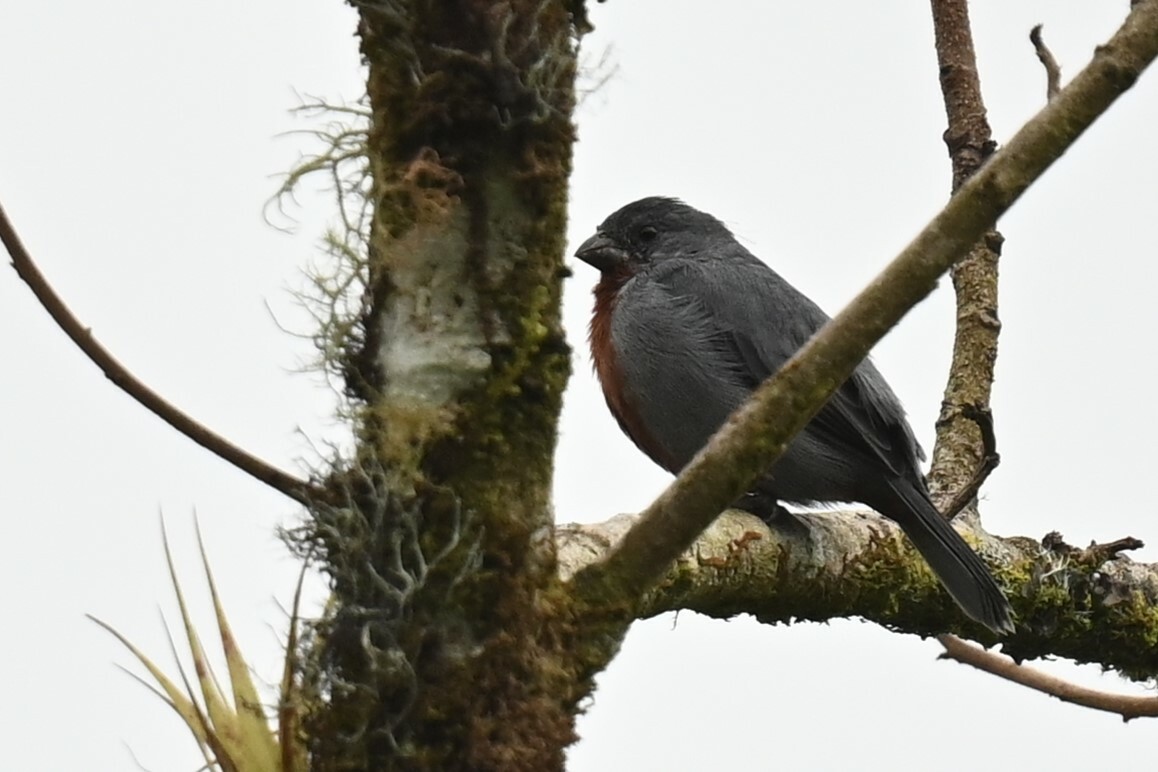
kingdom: Animalia
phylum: Chordata
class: Aves
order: Passeriformes
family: Thraupidae
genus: Sporophila
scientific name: Sporophila castaneiventris
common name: Chestnut-bellied seedeater
